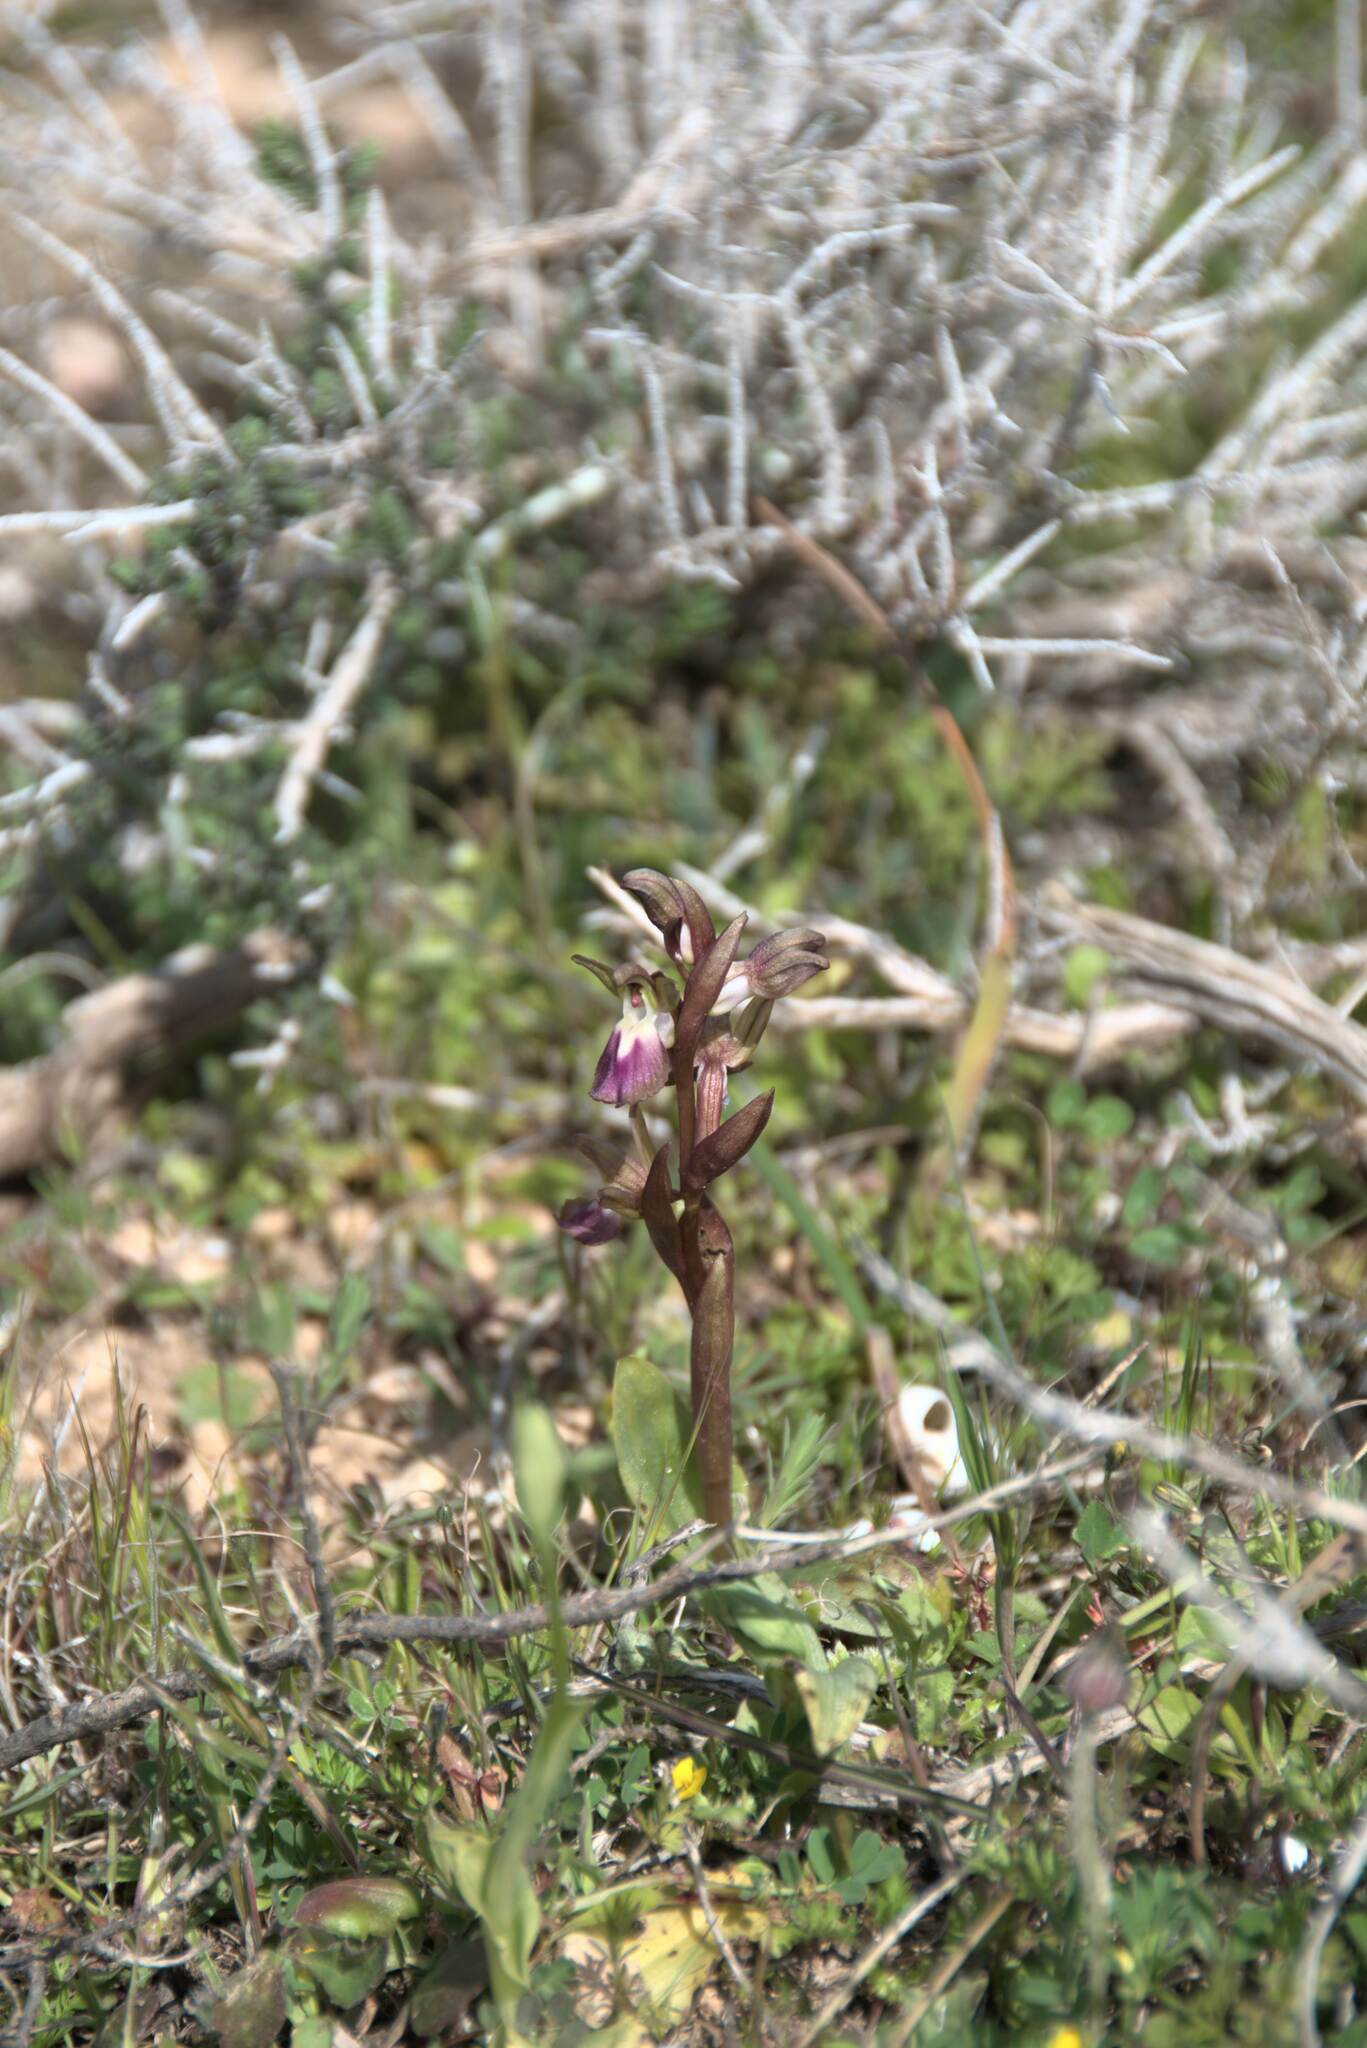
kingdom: Plantae
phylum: Tracheophyta
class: Liliopsida
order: Asparagales
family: Orchidaceae
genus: Anacamptis
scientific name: Anacamptis collina
